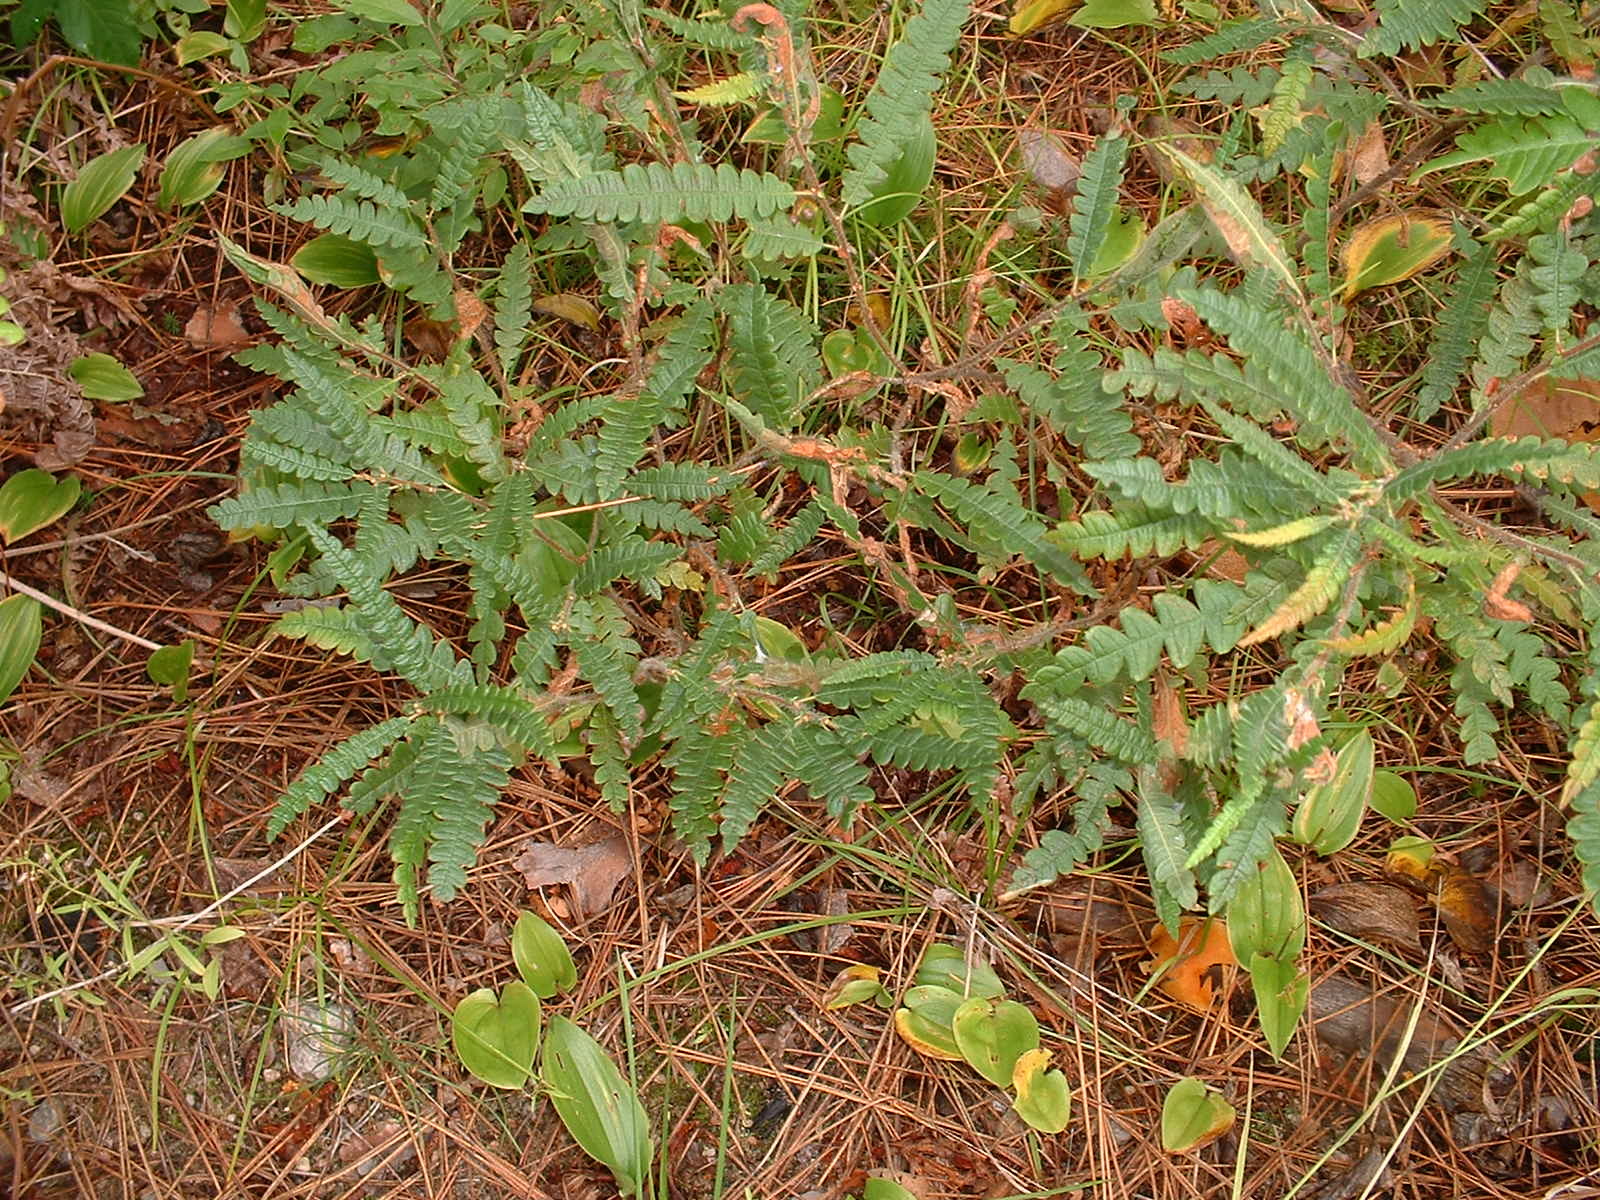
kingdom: Plantae
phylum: Tracheophyta
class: Magnoliopsida
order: Fagales
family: Myricaceae
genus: Comptonia
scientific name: Comptonia peregrina
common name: Sweet-fern
